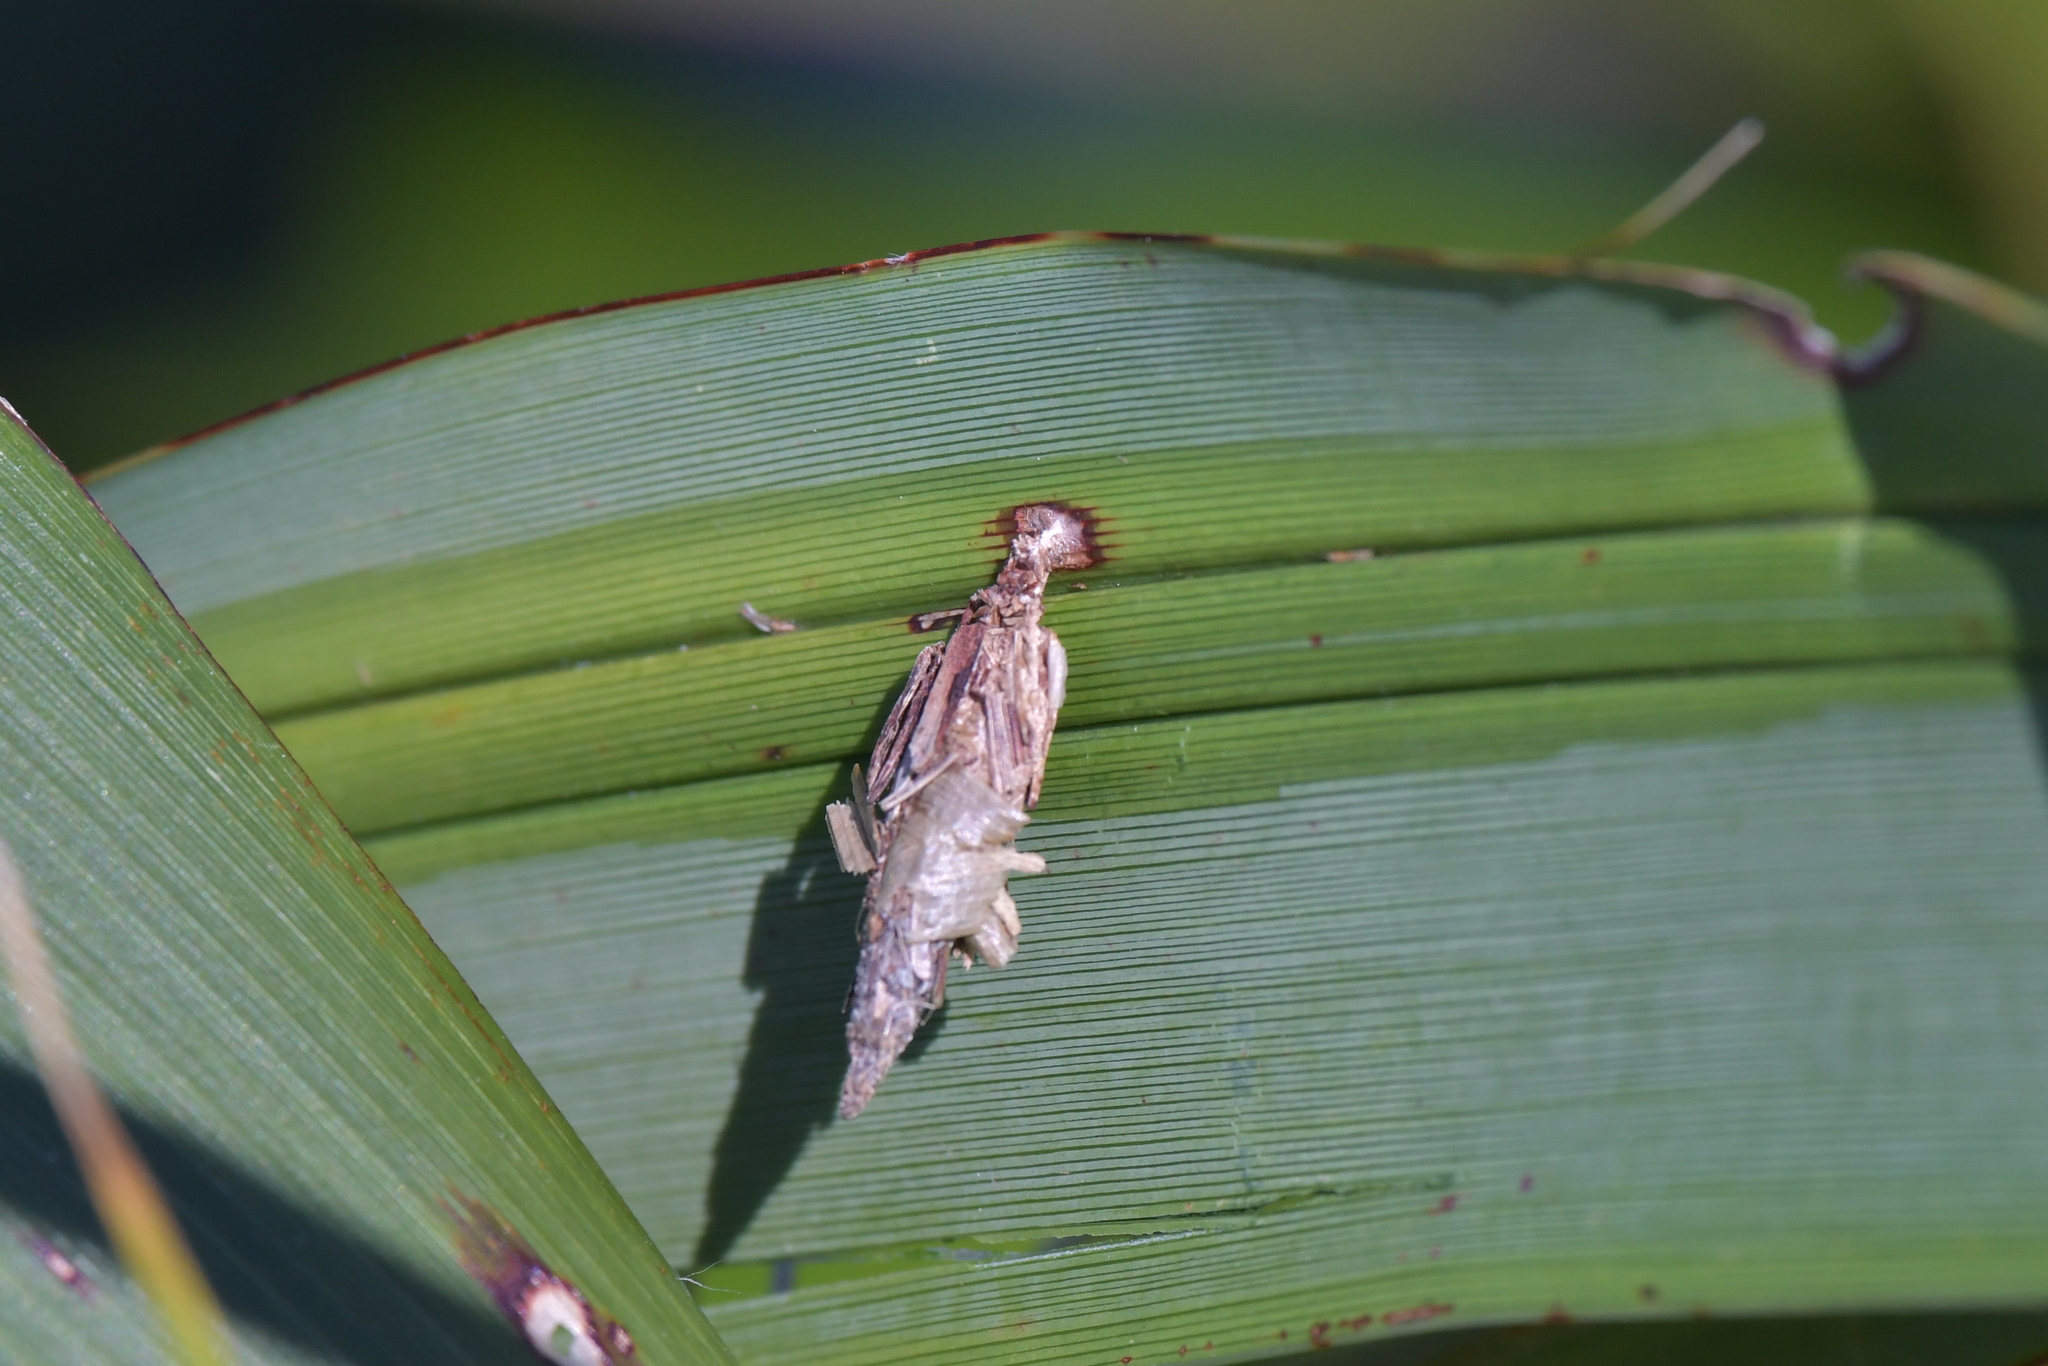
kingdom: Animalia
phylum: Arthropoda
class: Insecta
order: Lepidoptera
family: Psychidae
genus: Liothula
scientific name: Liothula omnivora
